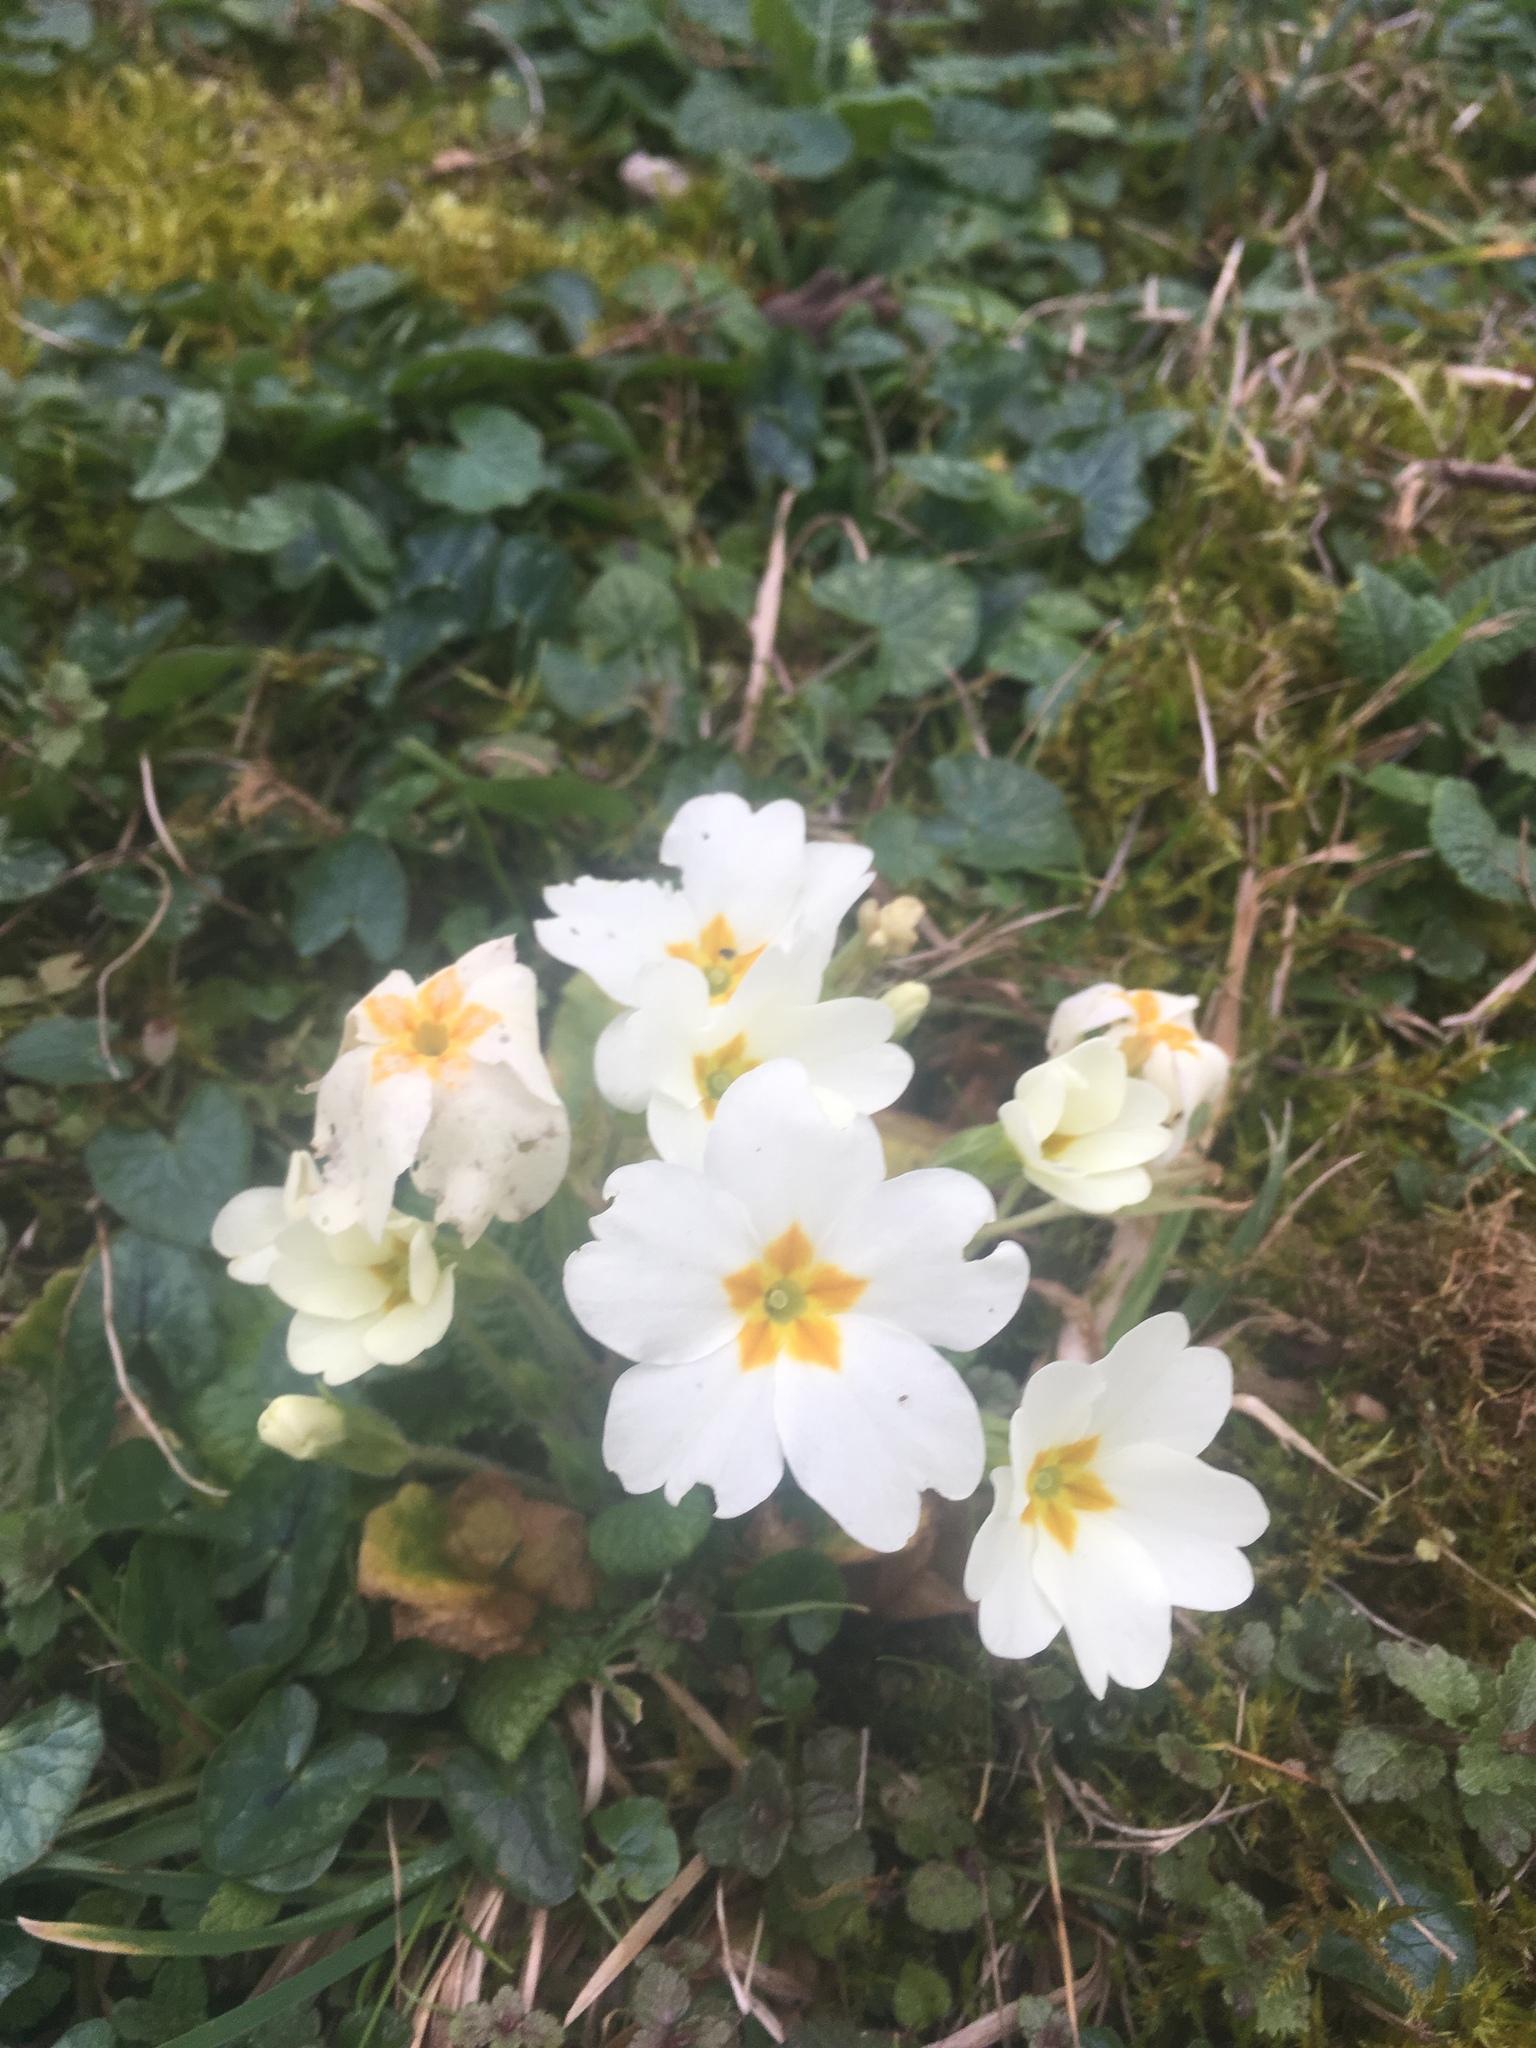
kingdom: Plantae
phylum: Tracheophyta
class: Magnoliopsida
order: Ericales
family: Primulaceae
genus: Primula
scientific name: Primula vulgaris
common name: Primrose
